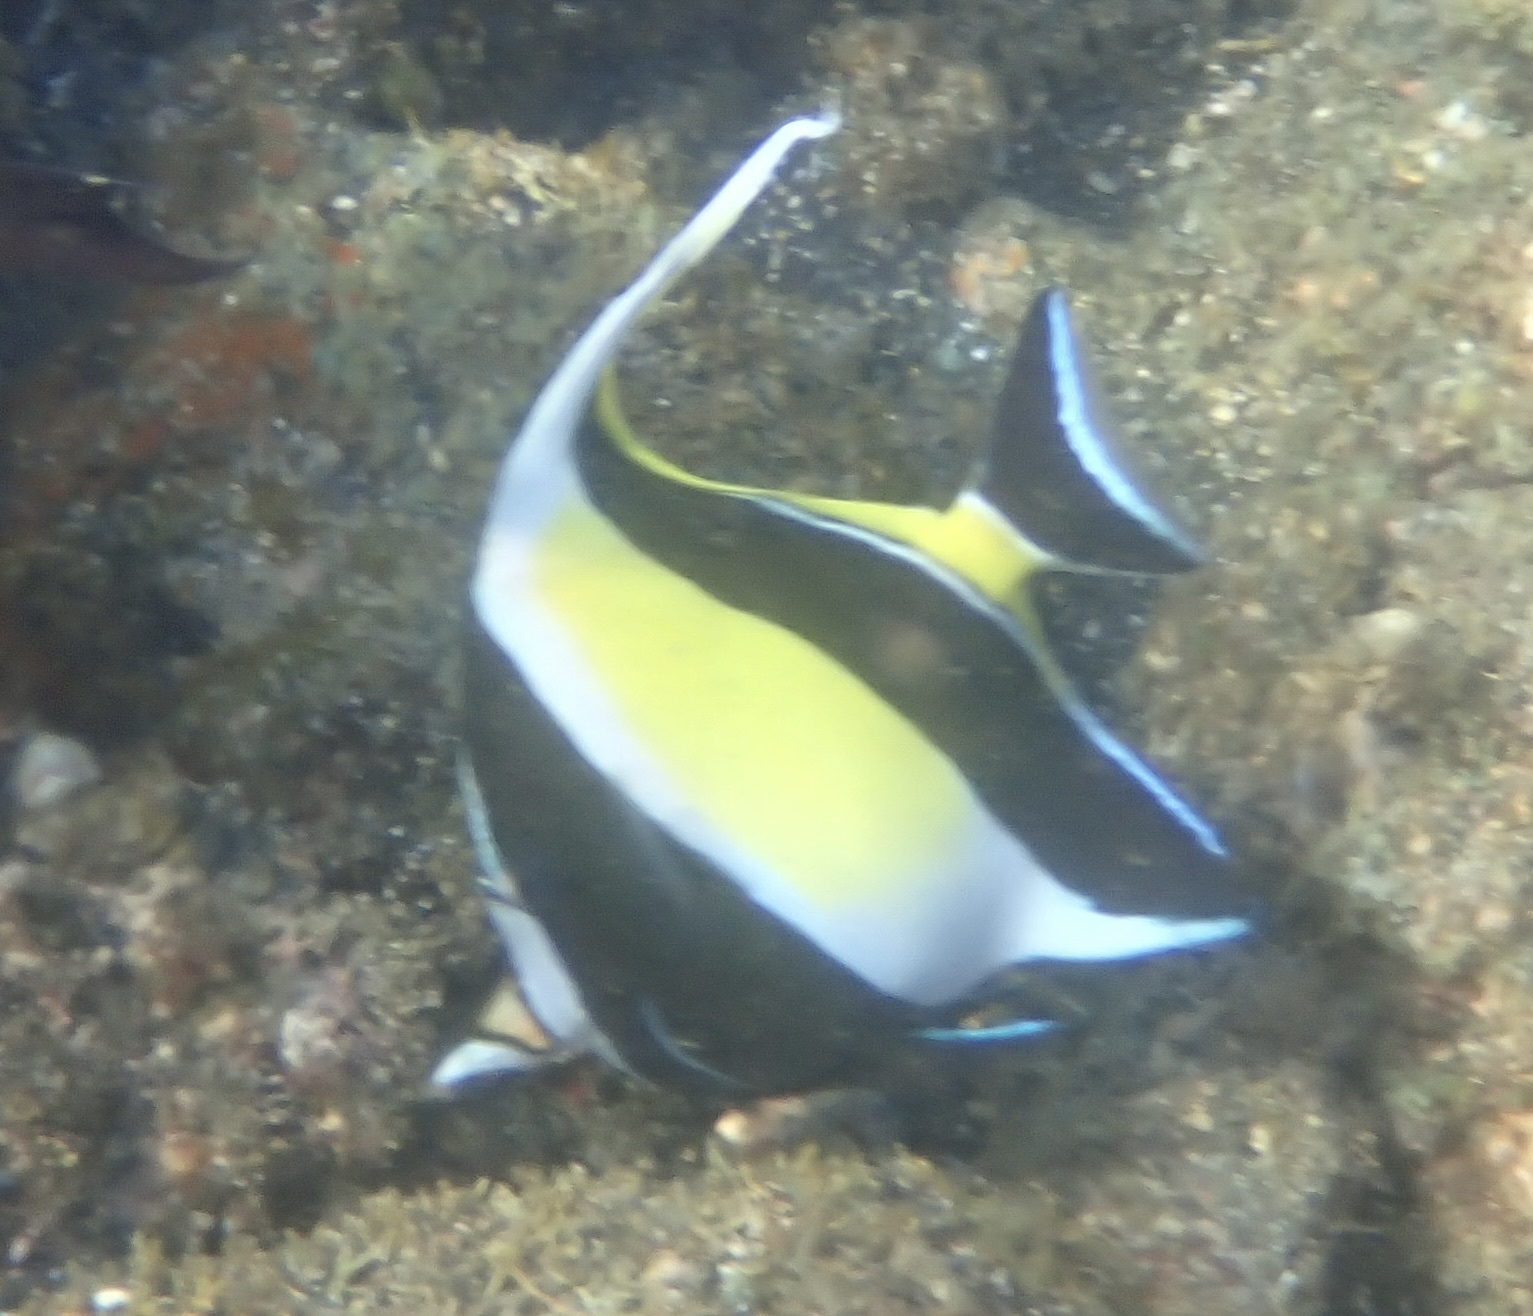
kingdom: Animalia
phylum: Chordata
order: Perciformes
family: Zanclidae
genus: Zanclus
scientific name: Zanclus cornutus
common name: Moorish idol
